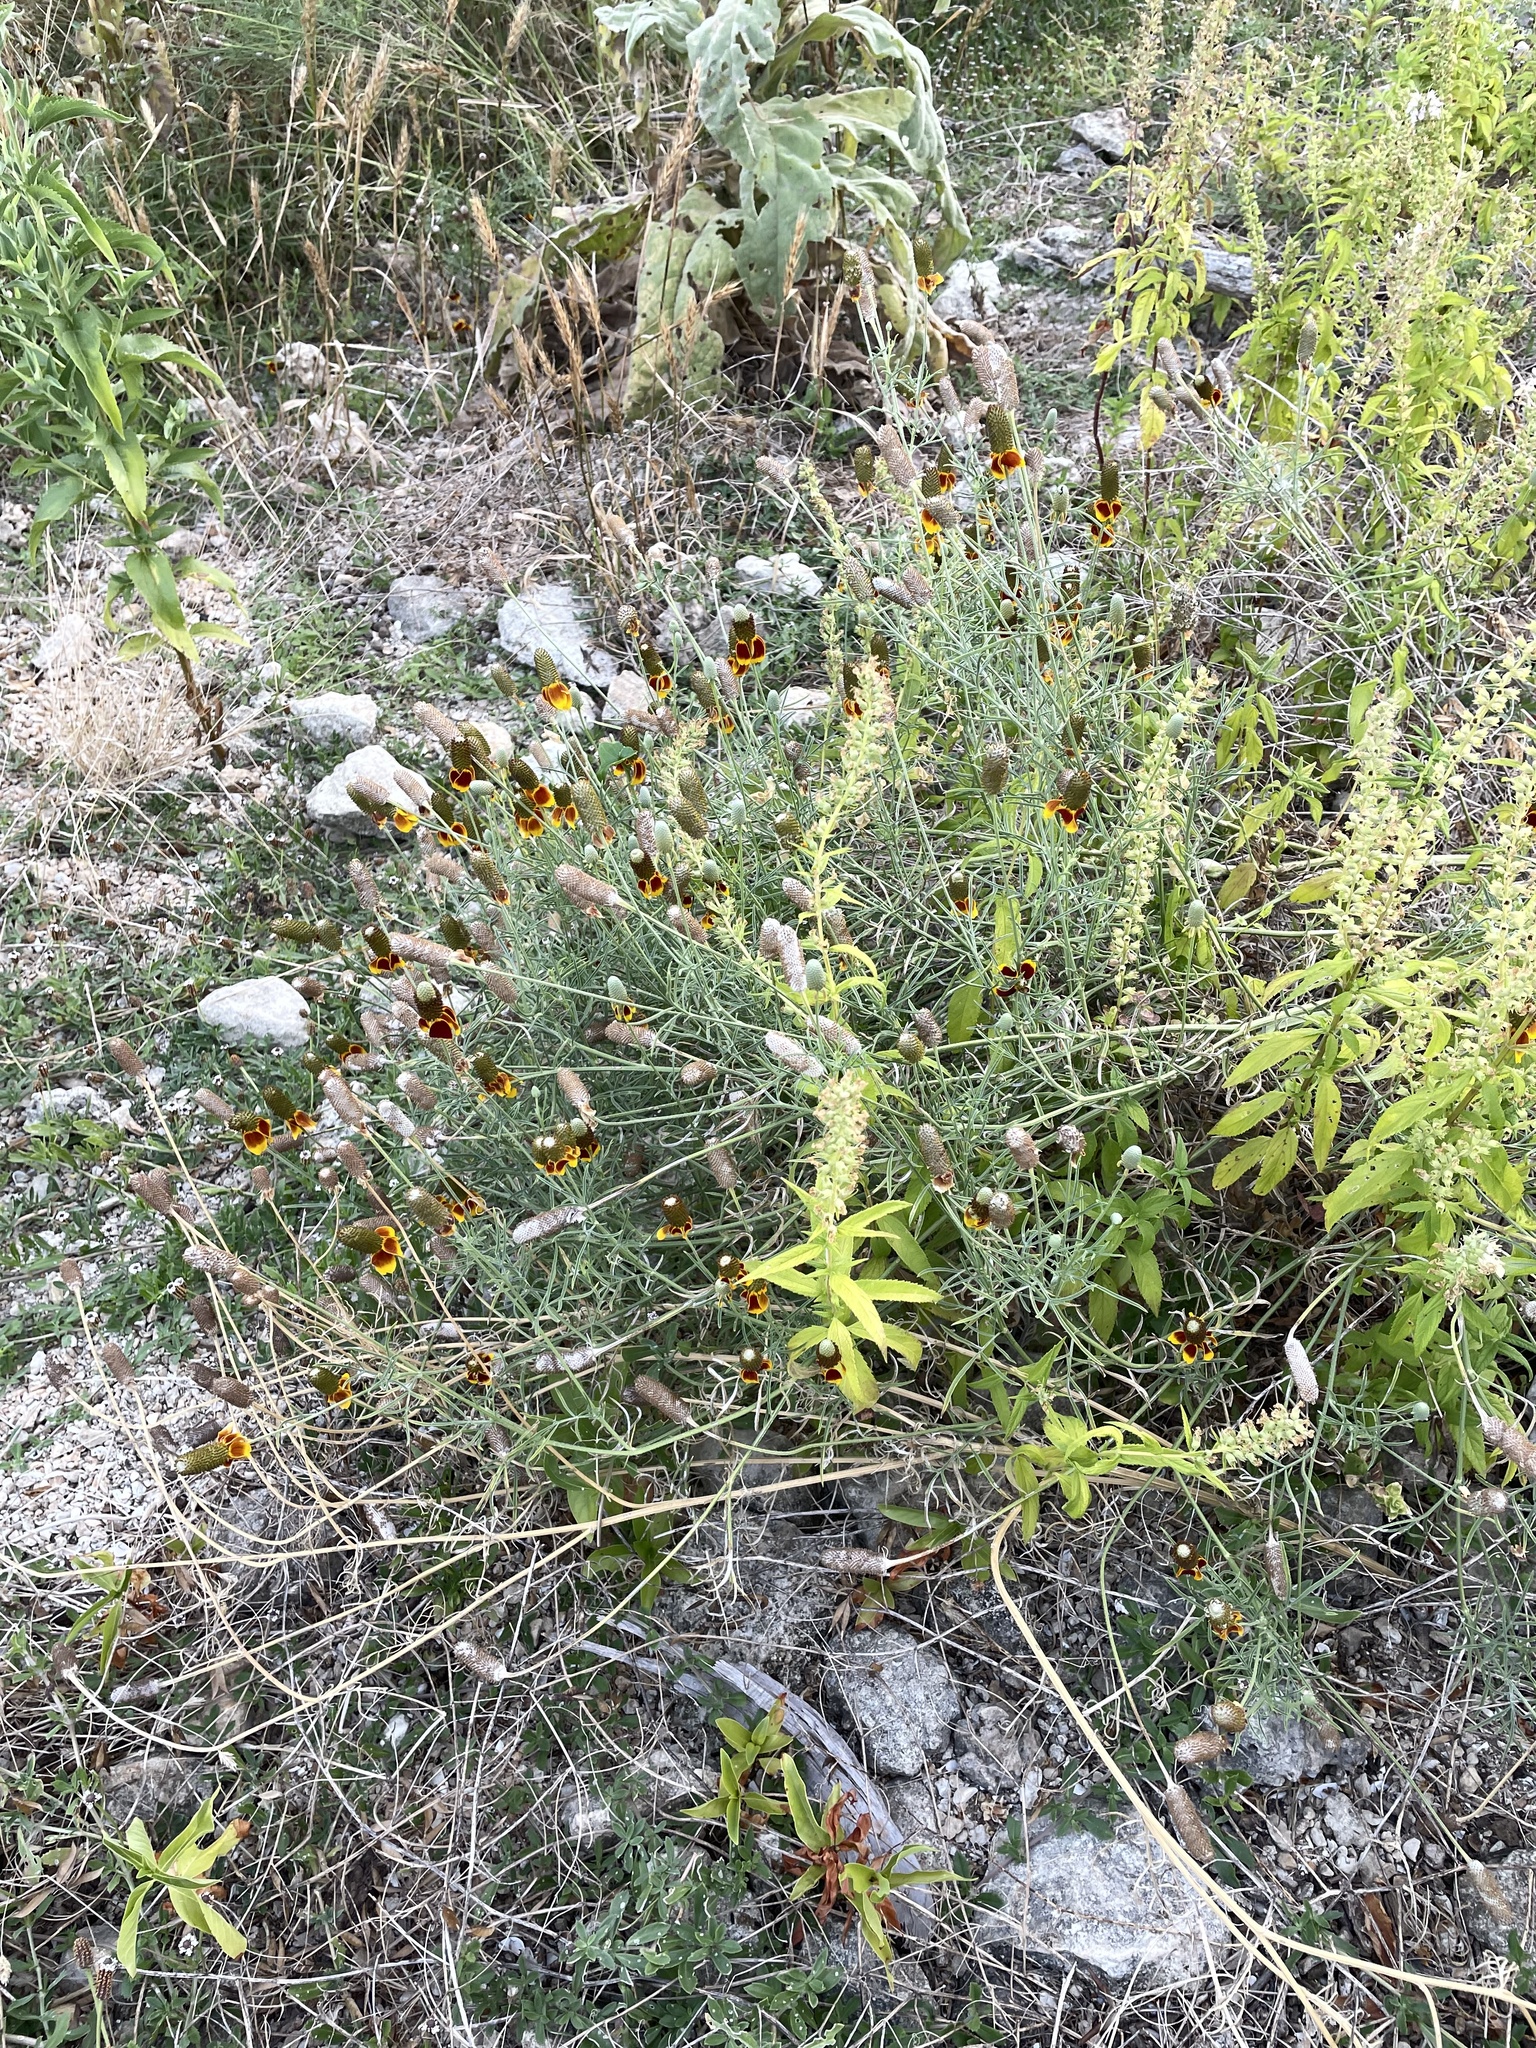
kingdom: Plantae
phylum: Tracheophyta
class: Magnoliopsida
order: Asterales
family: Asteraceae
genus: Ratibida
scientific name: Ratibida columnifera
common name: Prairie coneflower
